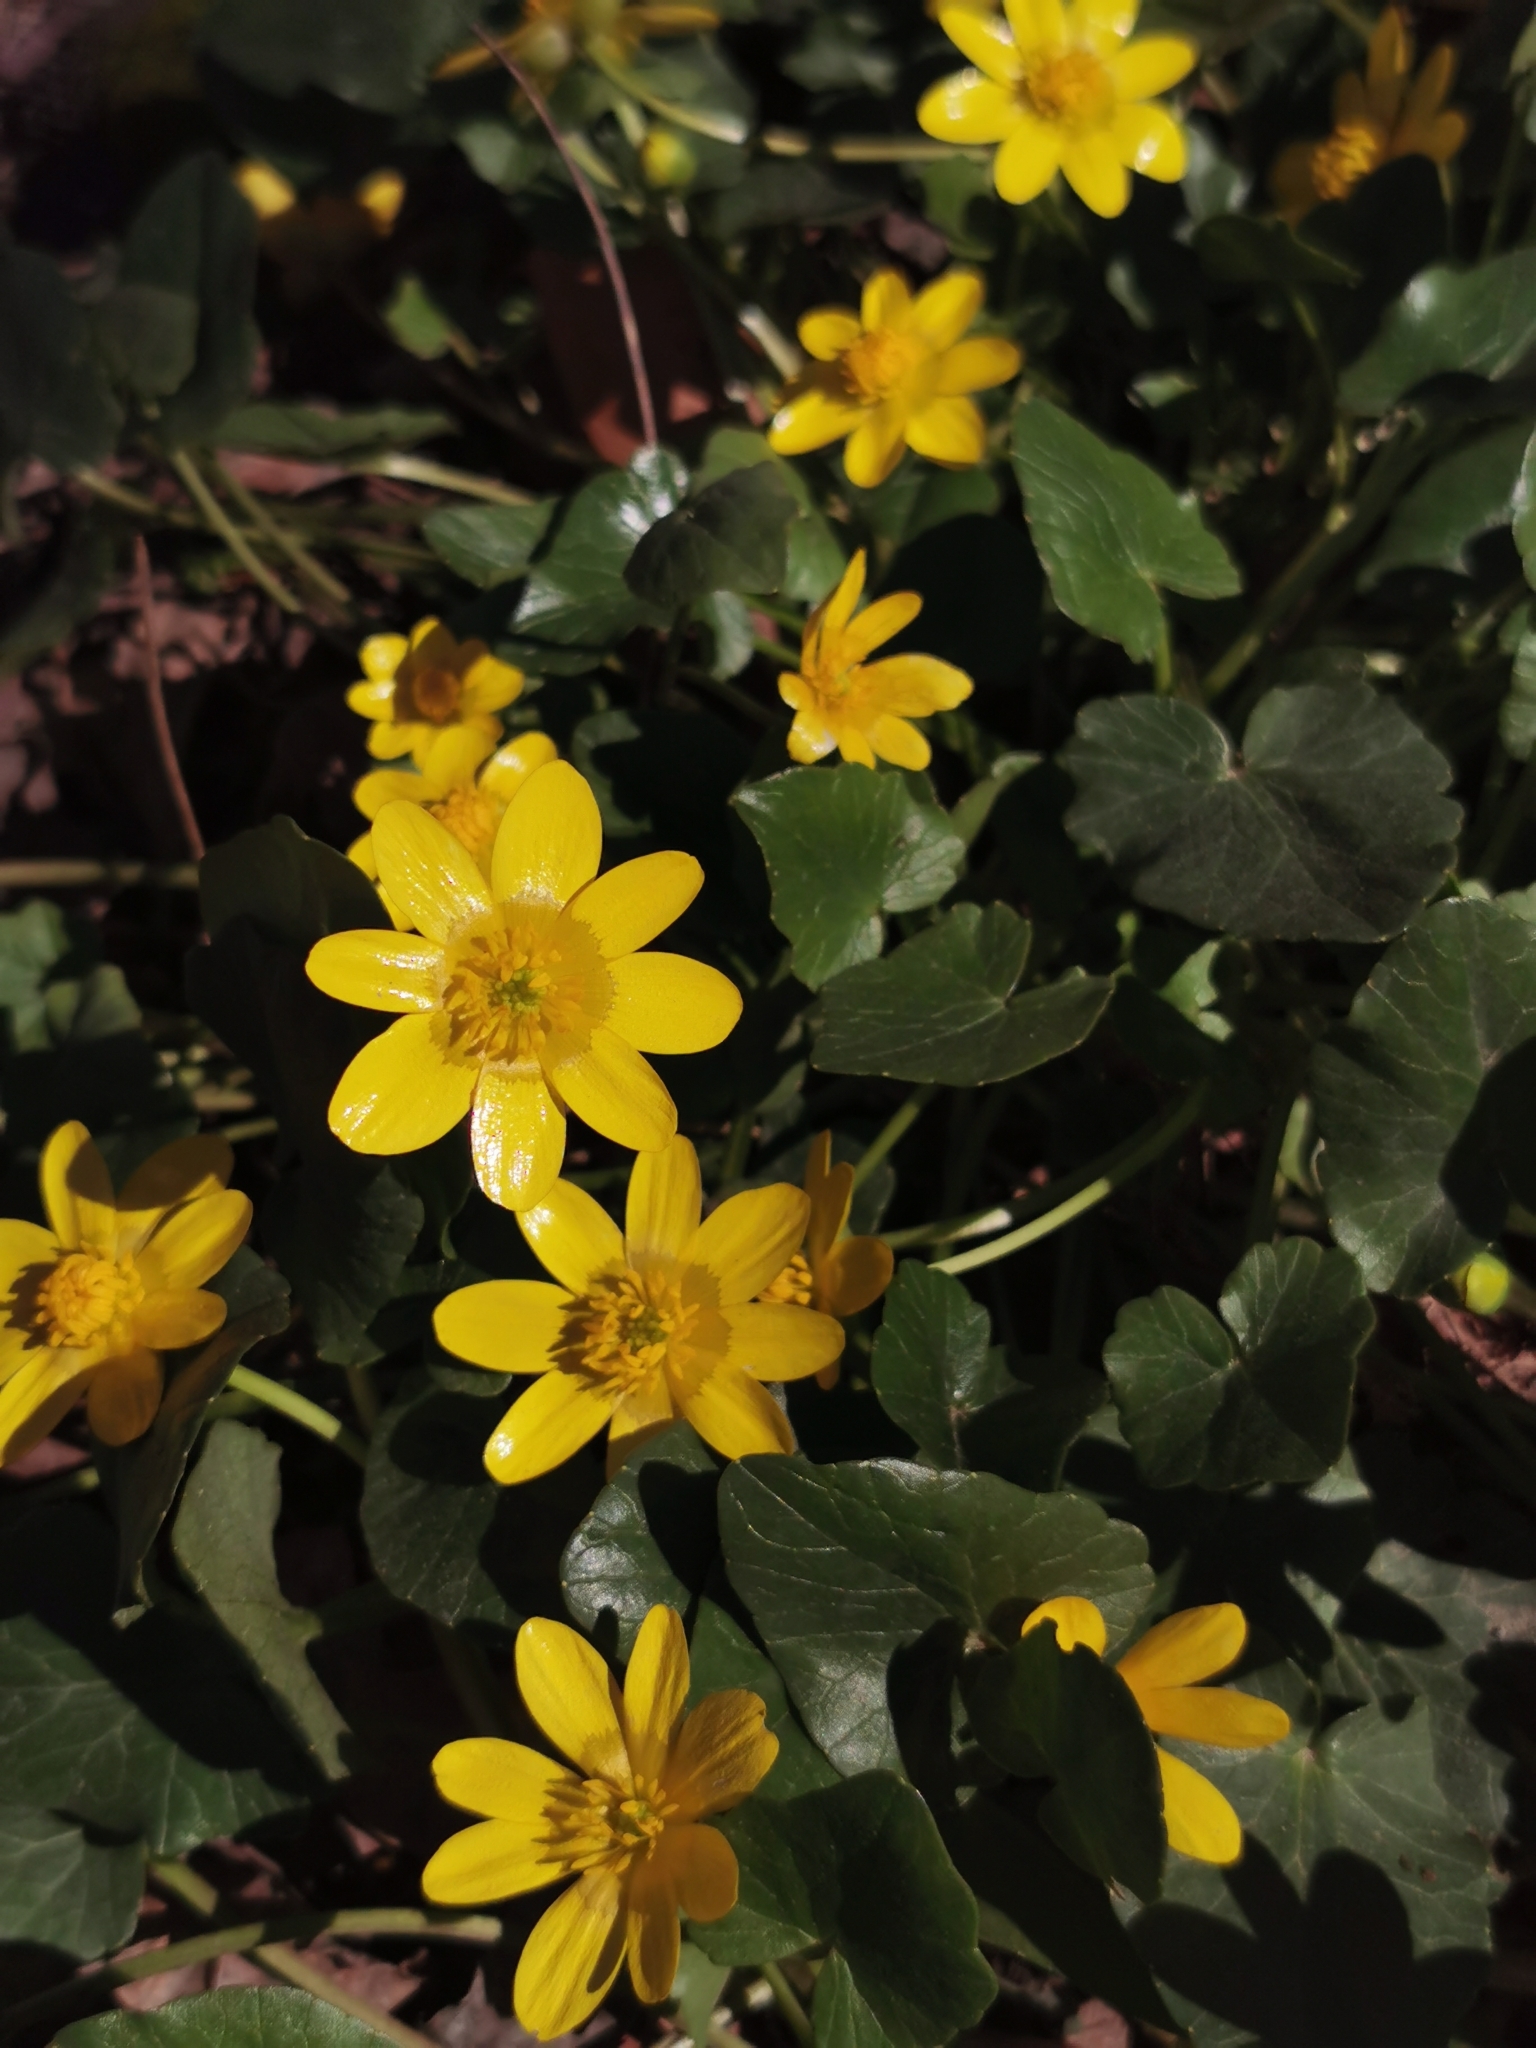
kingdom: Plantae
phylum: Tracheophyta
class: Magnoliopsida
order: Ranunculales
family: Ranunculaceae
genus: Ficaria
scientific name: Ficaria verna
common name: Lesser celandine
